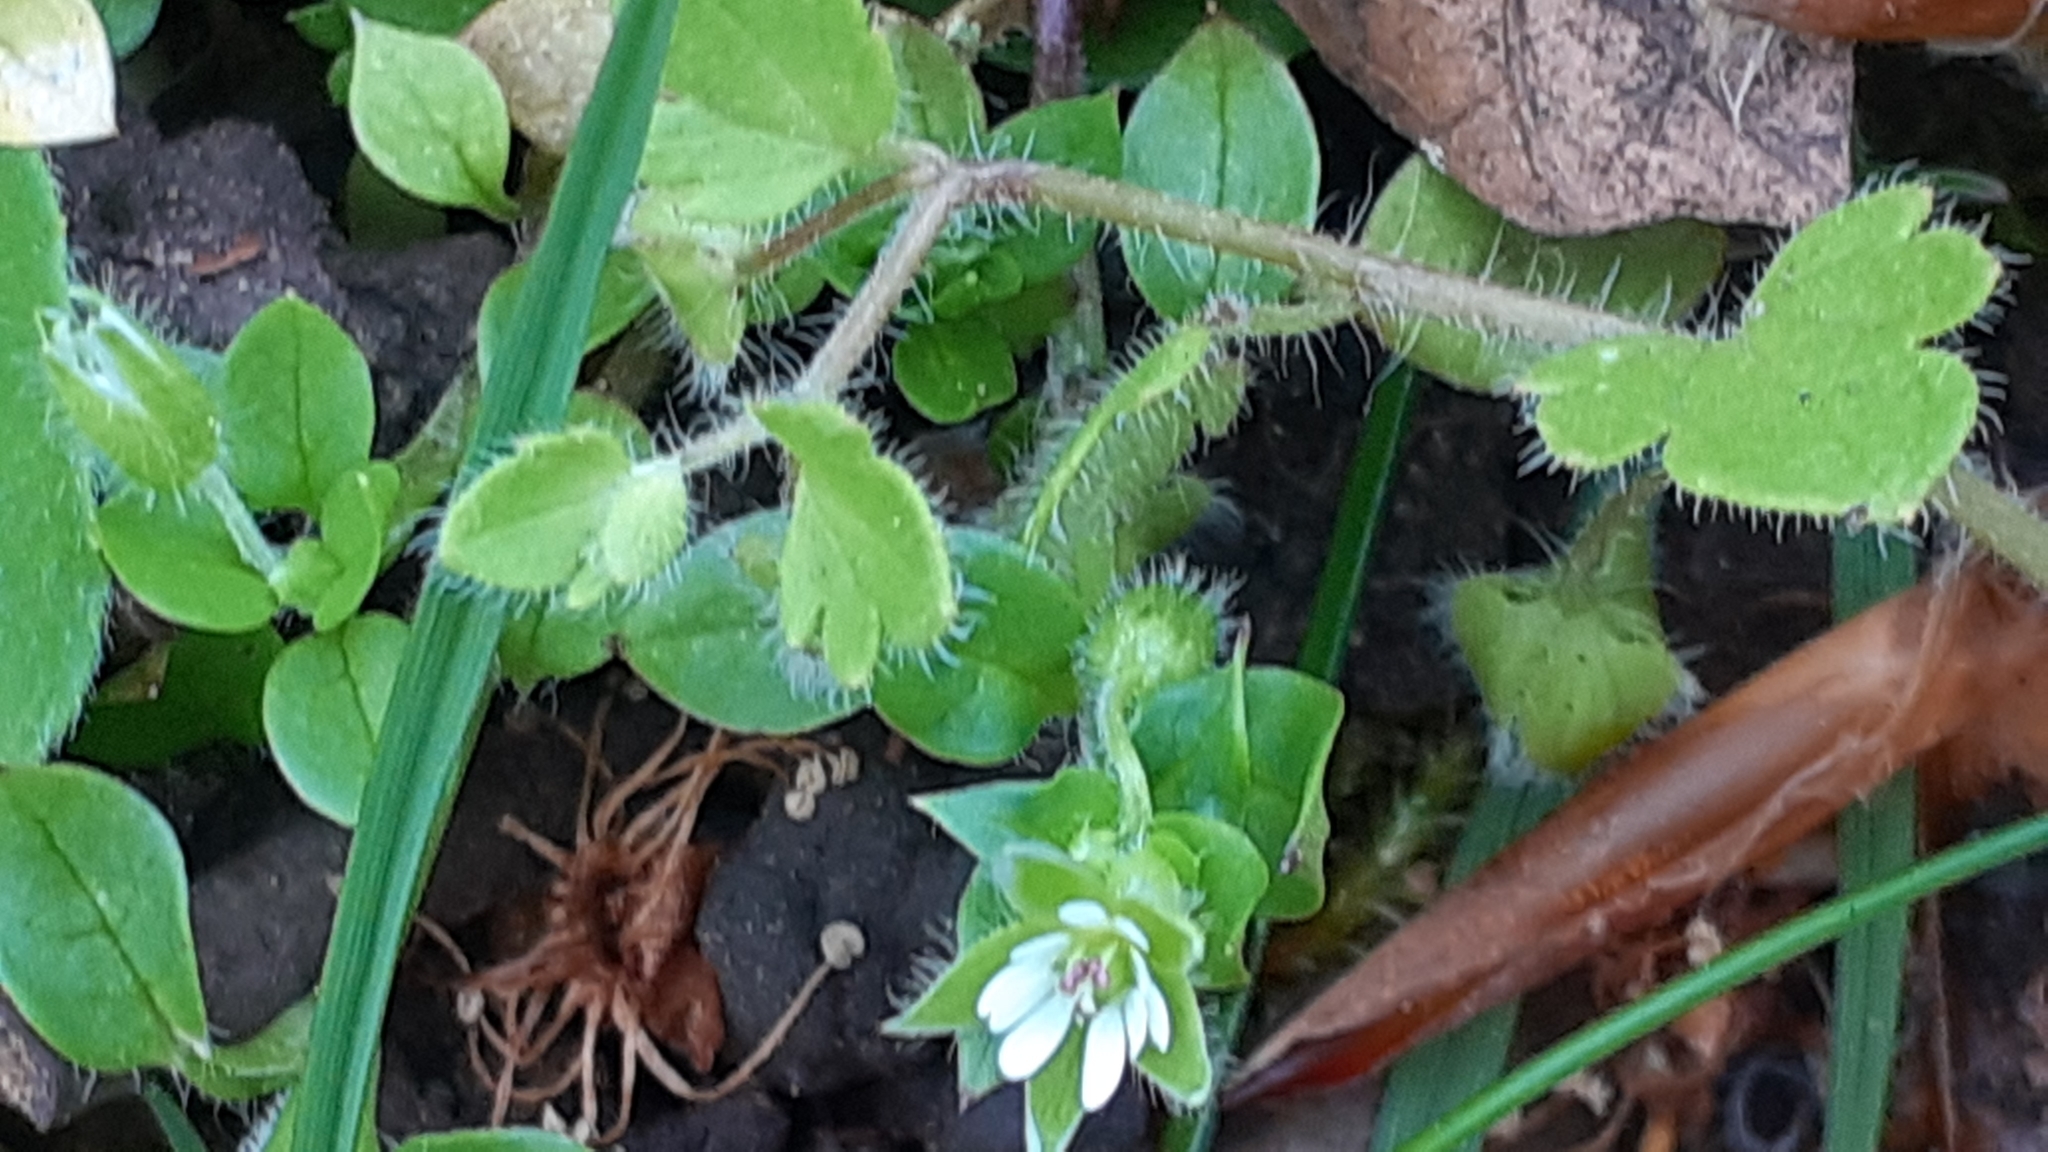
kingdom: Plantae
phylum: Tracheophyta
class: Magnoliopsida
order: Caryophyllales
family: Caryophyllaceae
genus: Stellaria
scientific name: Stellaria media
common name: Common chickweed
